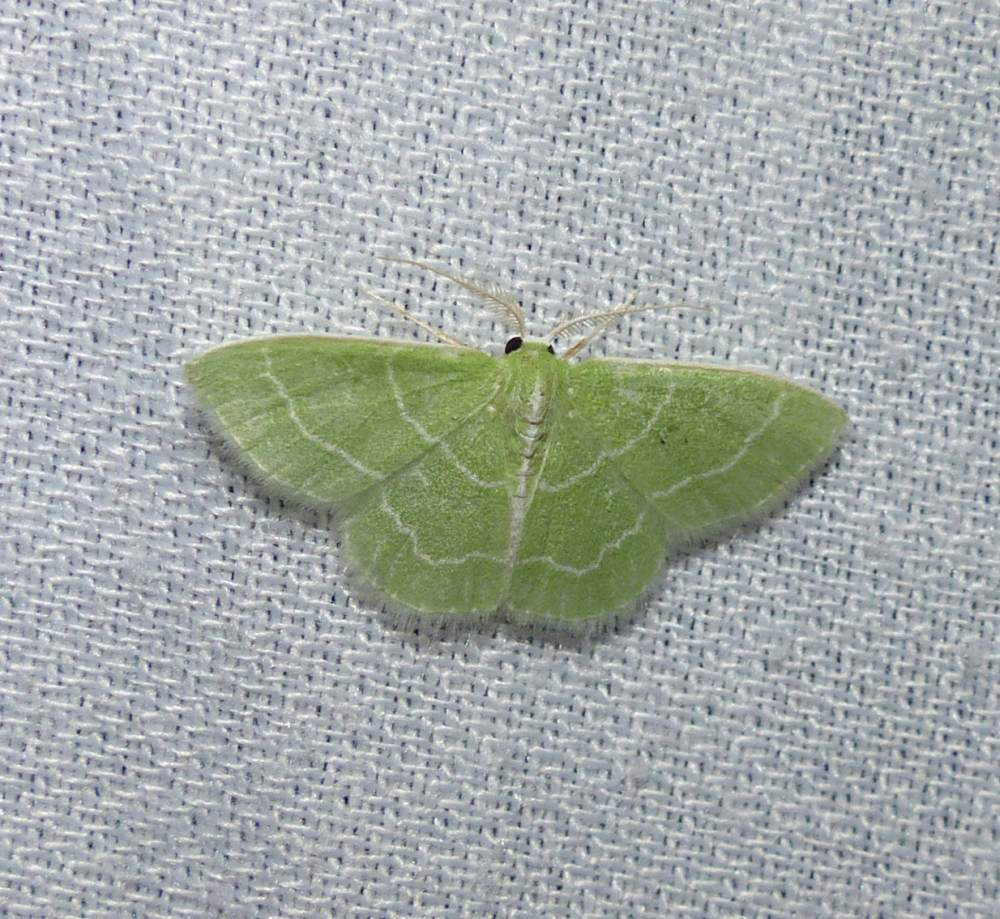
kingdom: Animalia
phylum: Arthropoda
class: Insecta
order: Lepidoptera
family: Geometridae
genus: Synchlora
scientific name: Synchlora aerata
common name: Wavy-lined emerald
